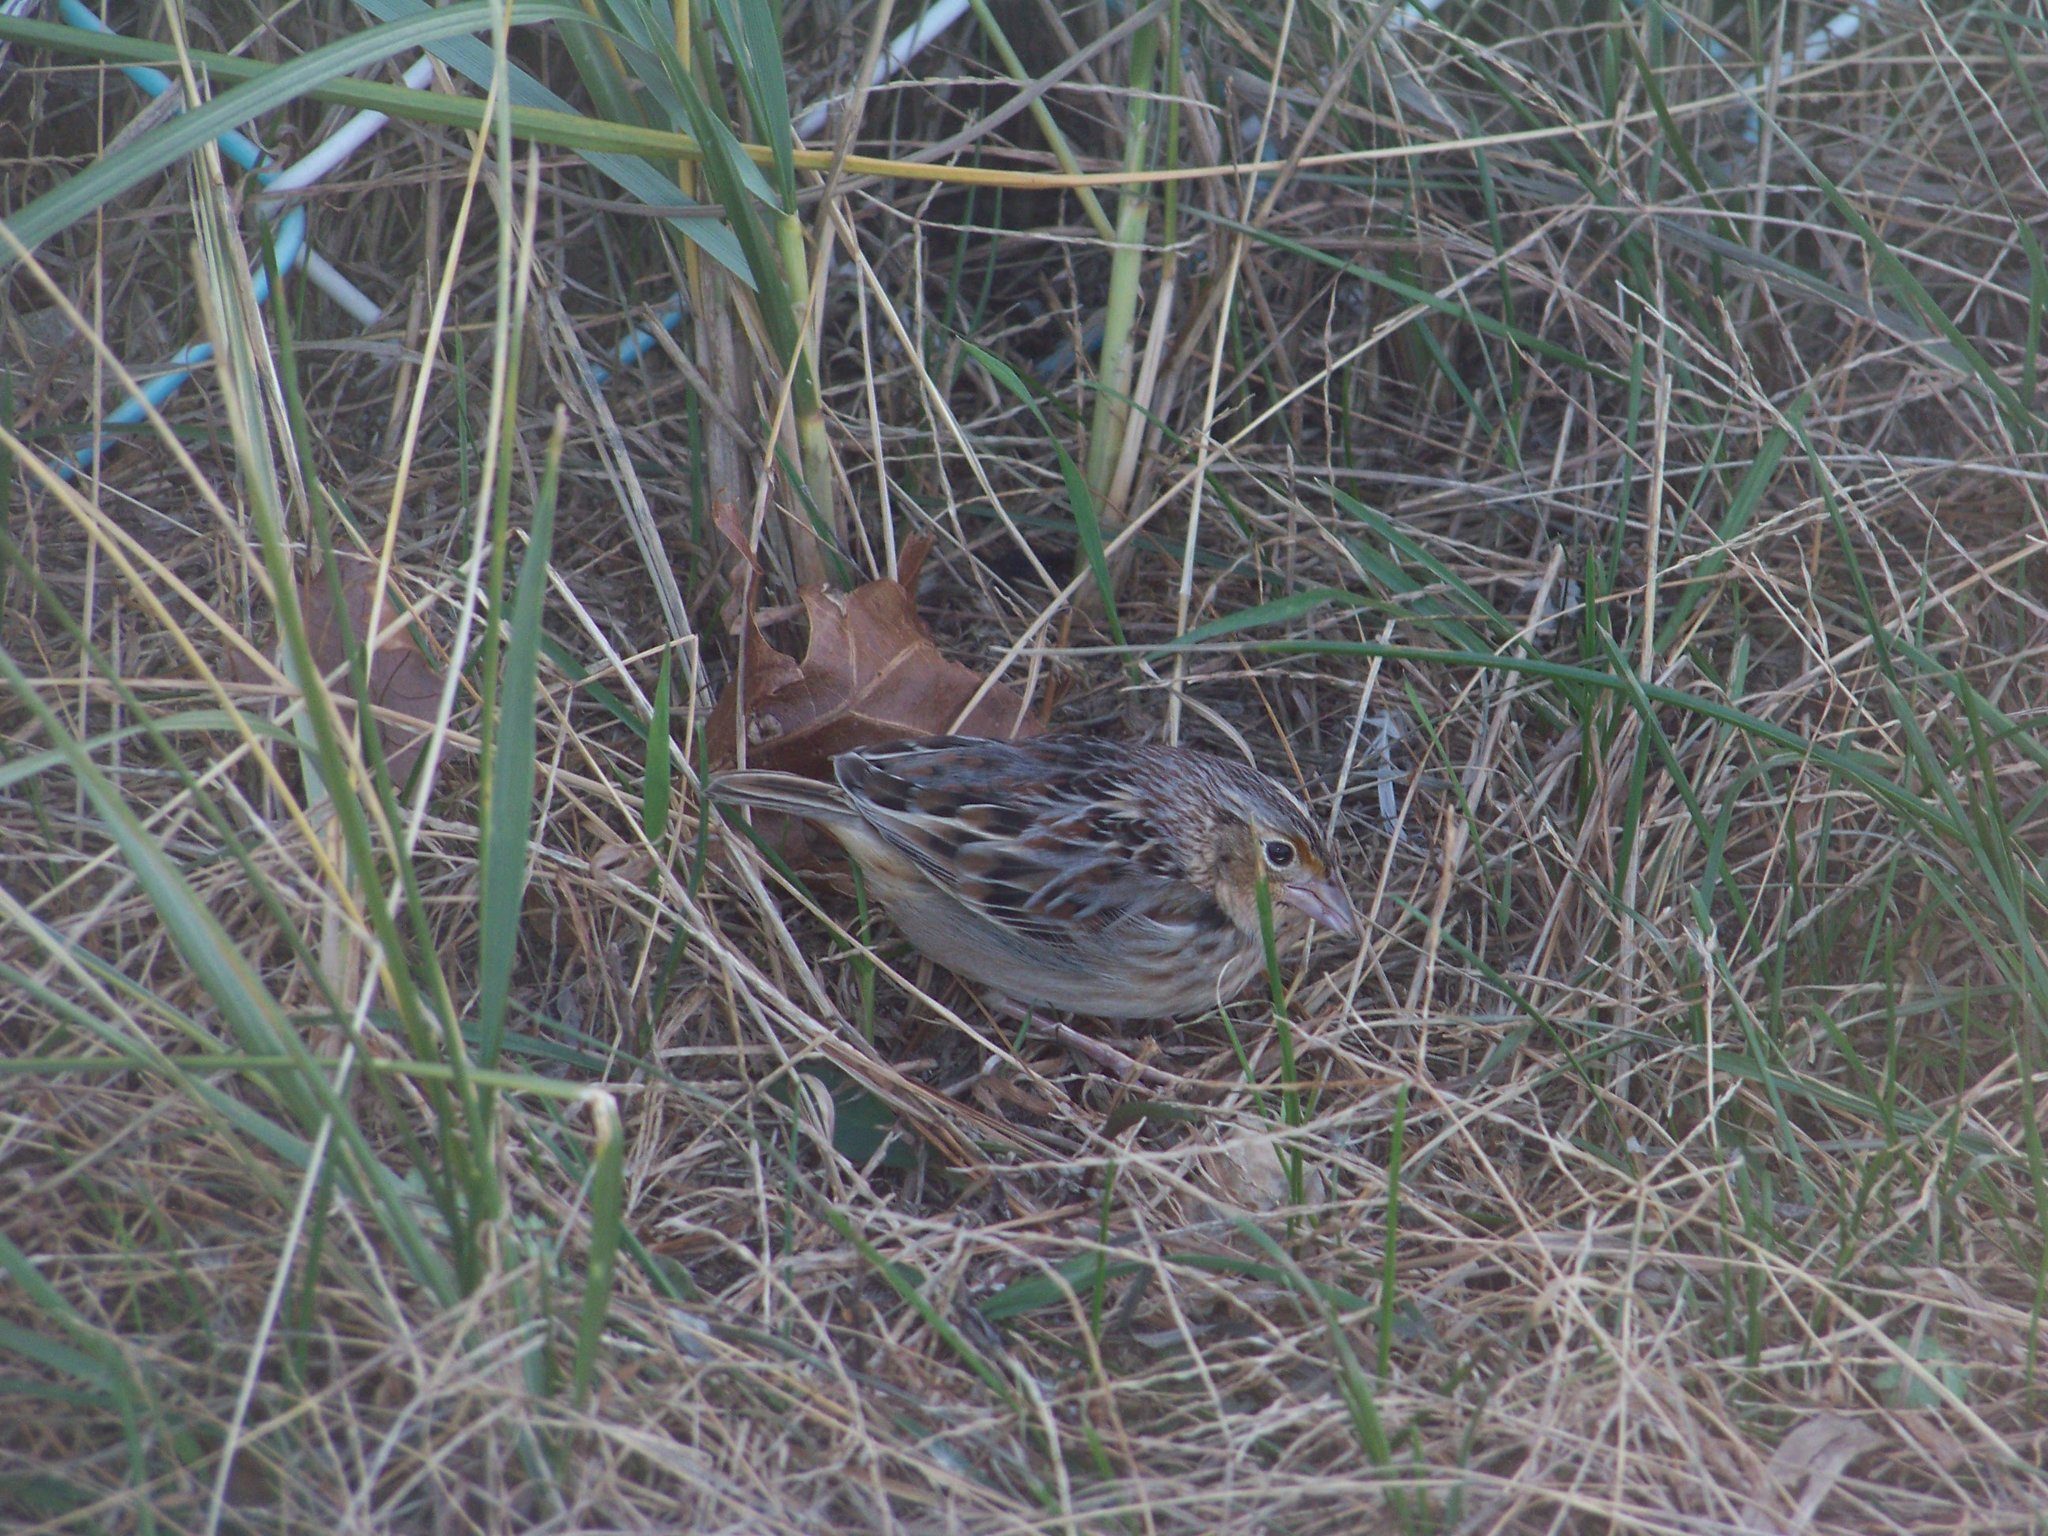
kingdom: Animalia
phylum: Chordata
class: Aves
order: Passeriformes
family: Passerellidae
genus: Ammodramus
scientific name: Ammodramus savannarum
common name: Grasshopper sparrow
